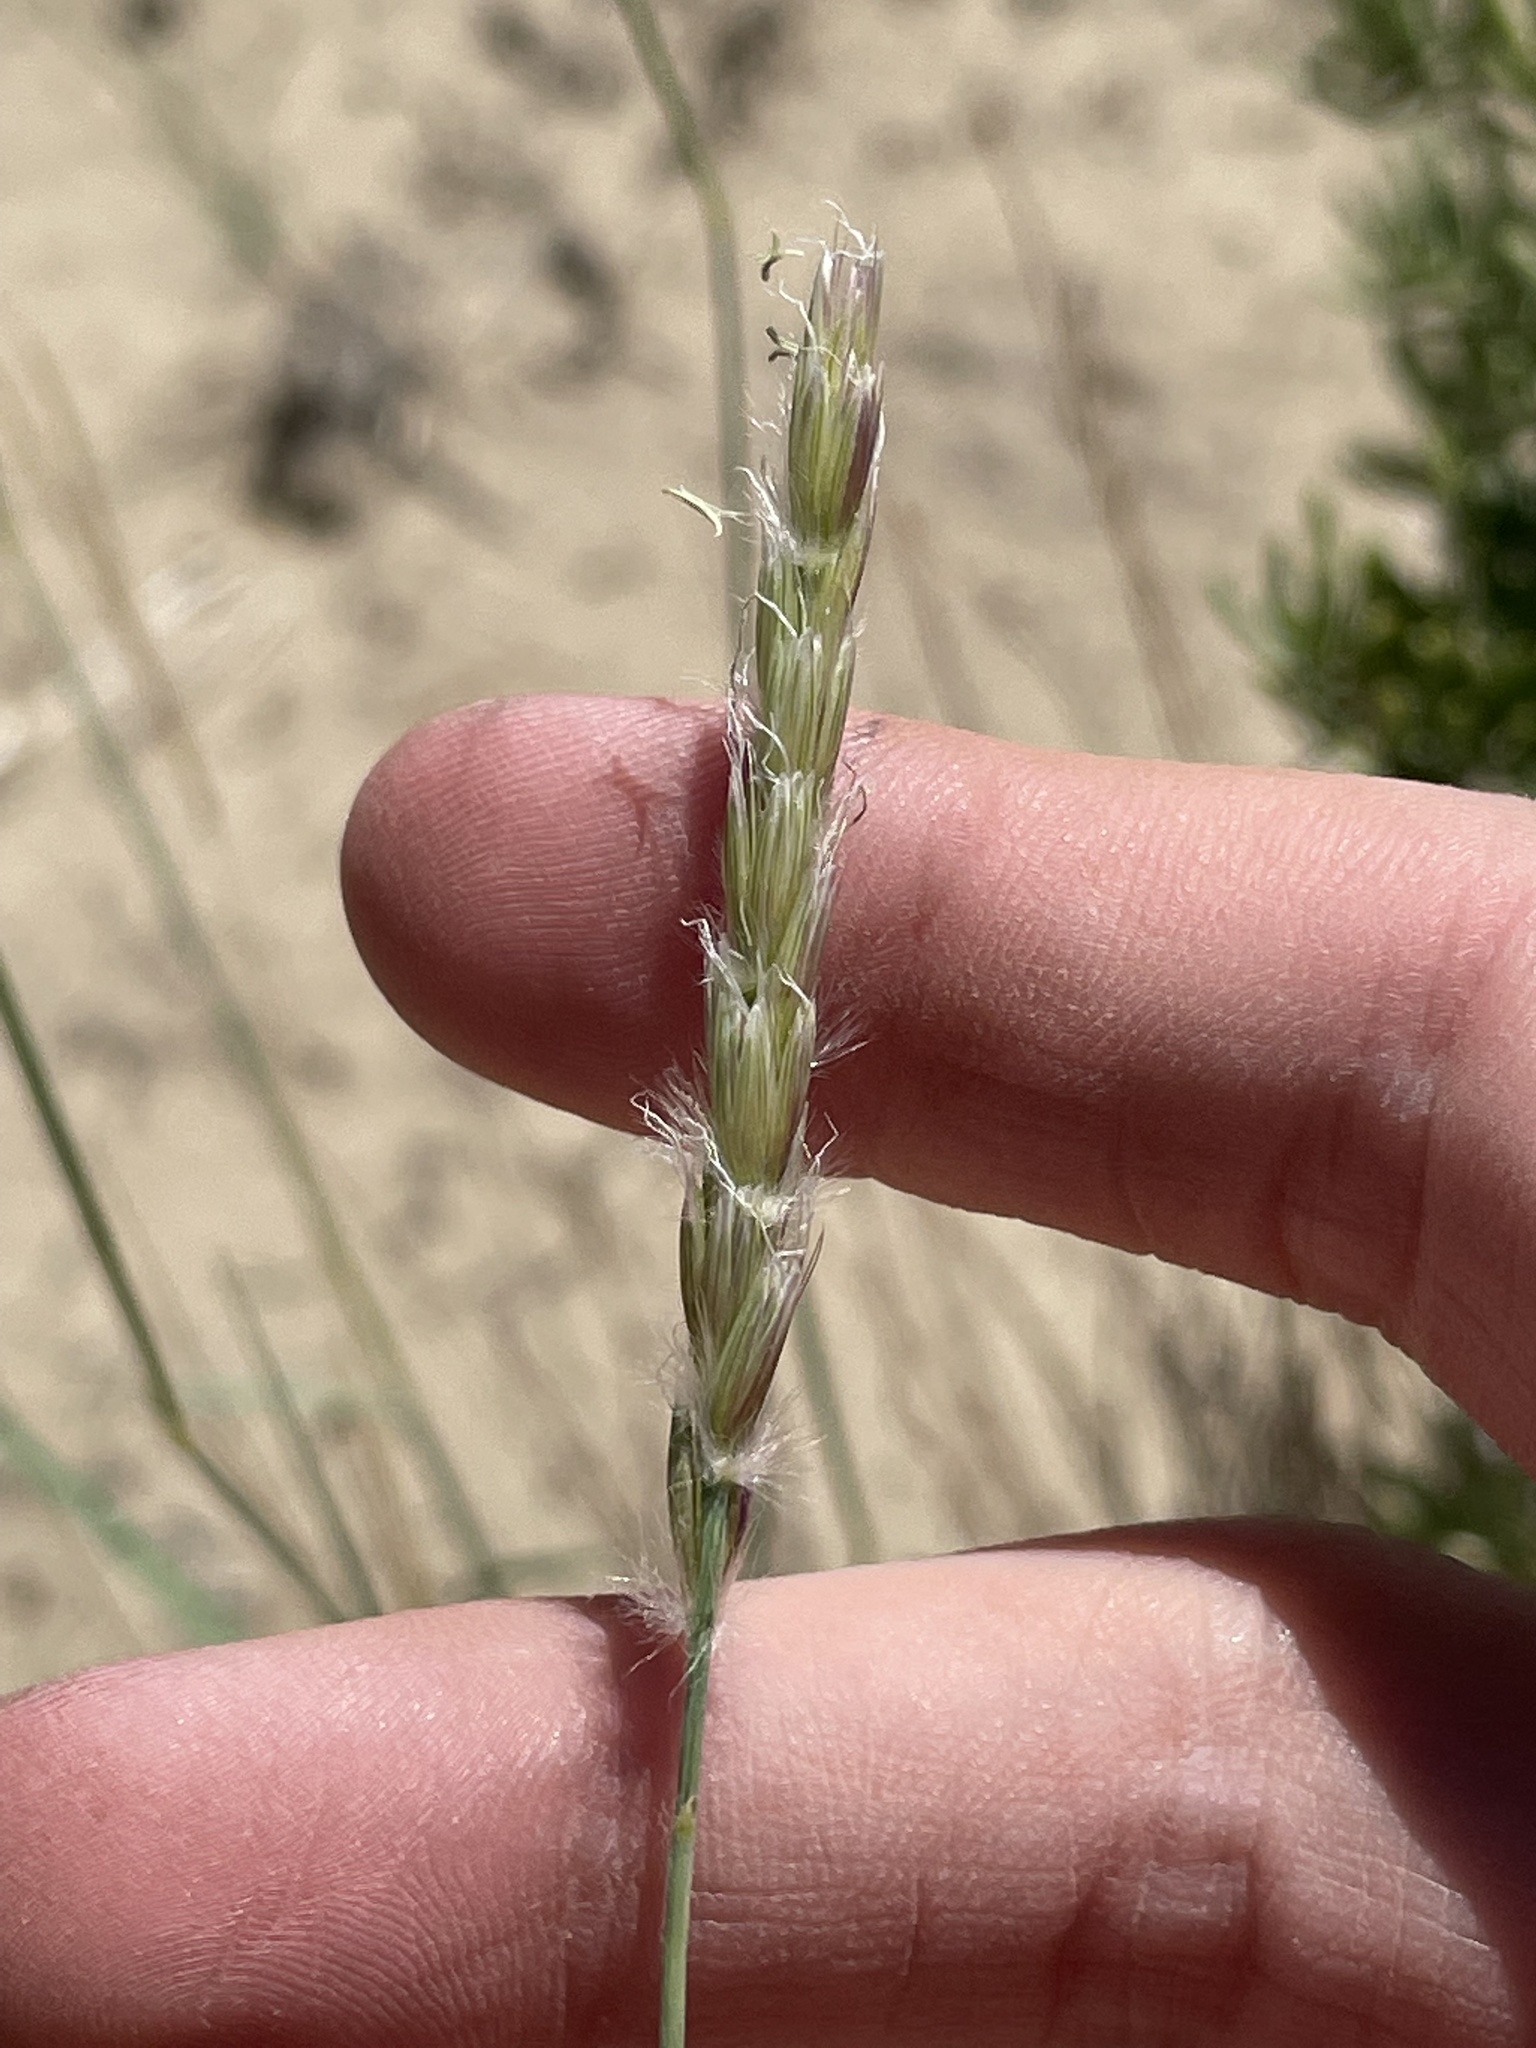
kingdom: Plantae
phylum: Tracheophyta
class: Liliopsida
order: Poales
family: Poaceae
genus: Hilaria
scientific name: Hilaria jamesii
